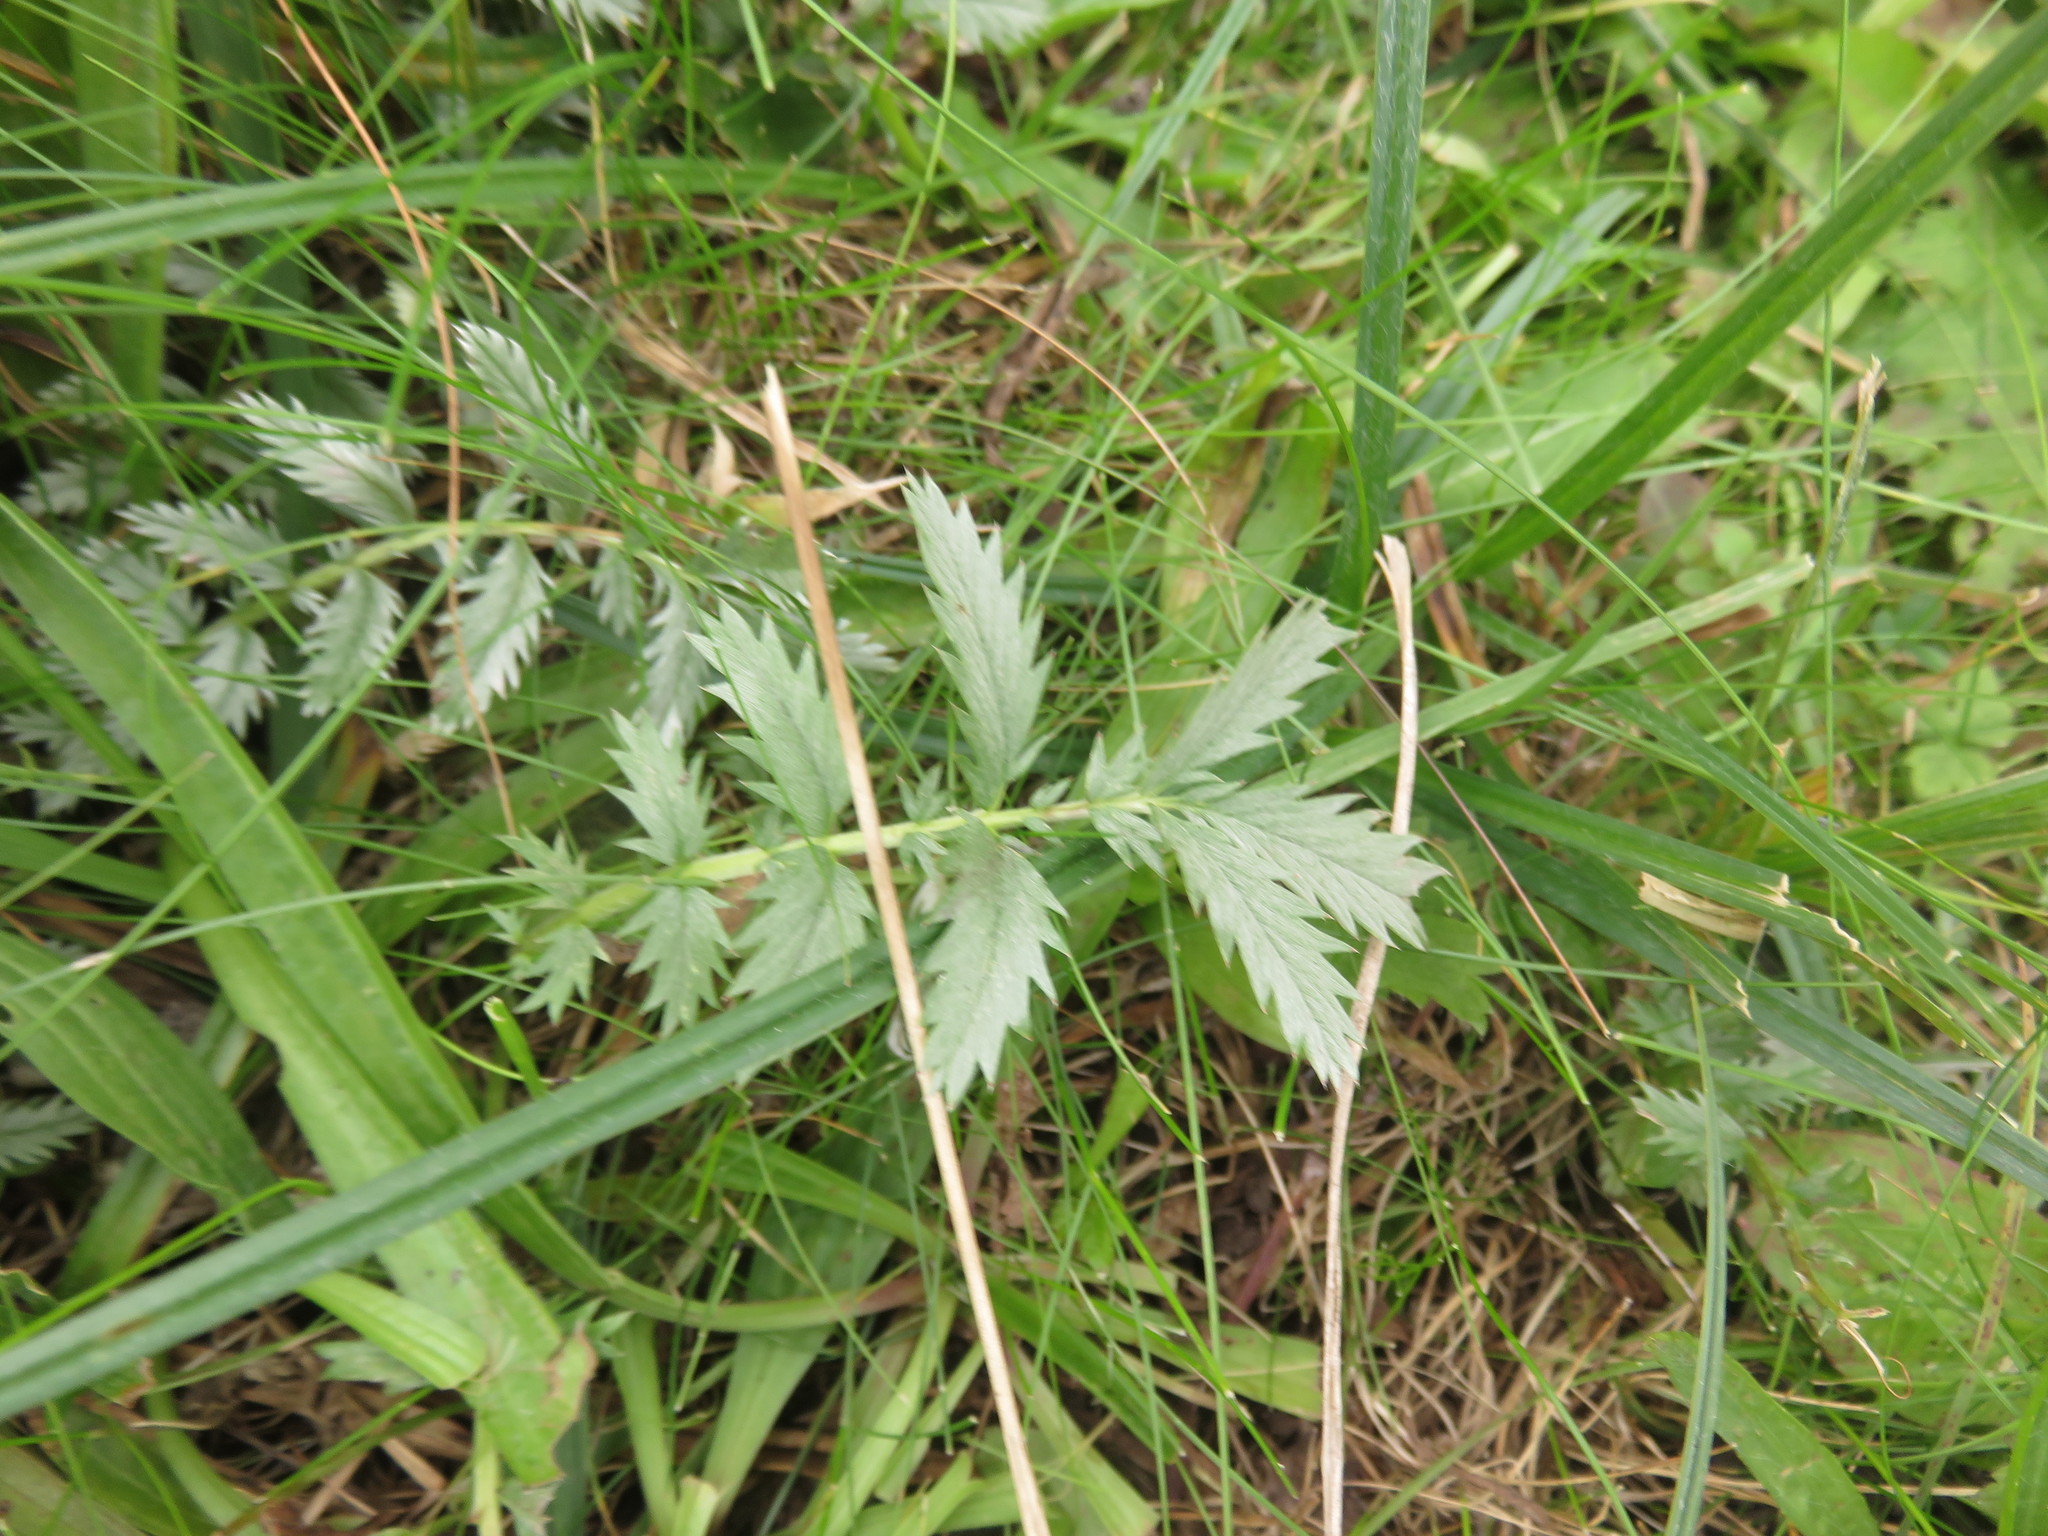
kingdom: Plantae
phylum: Tracheophyta
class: Magnoliopsida
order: Rosales
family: Rosaceae
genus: Argentina
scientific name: Argentina anserina
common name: Common silverweed
